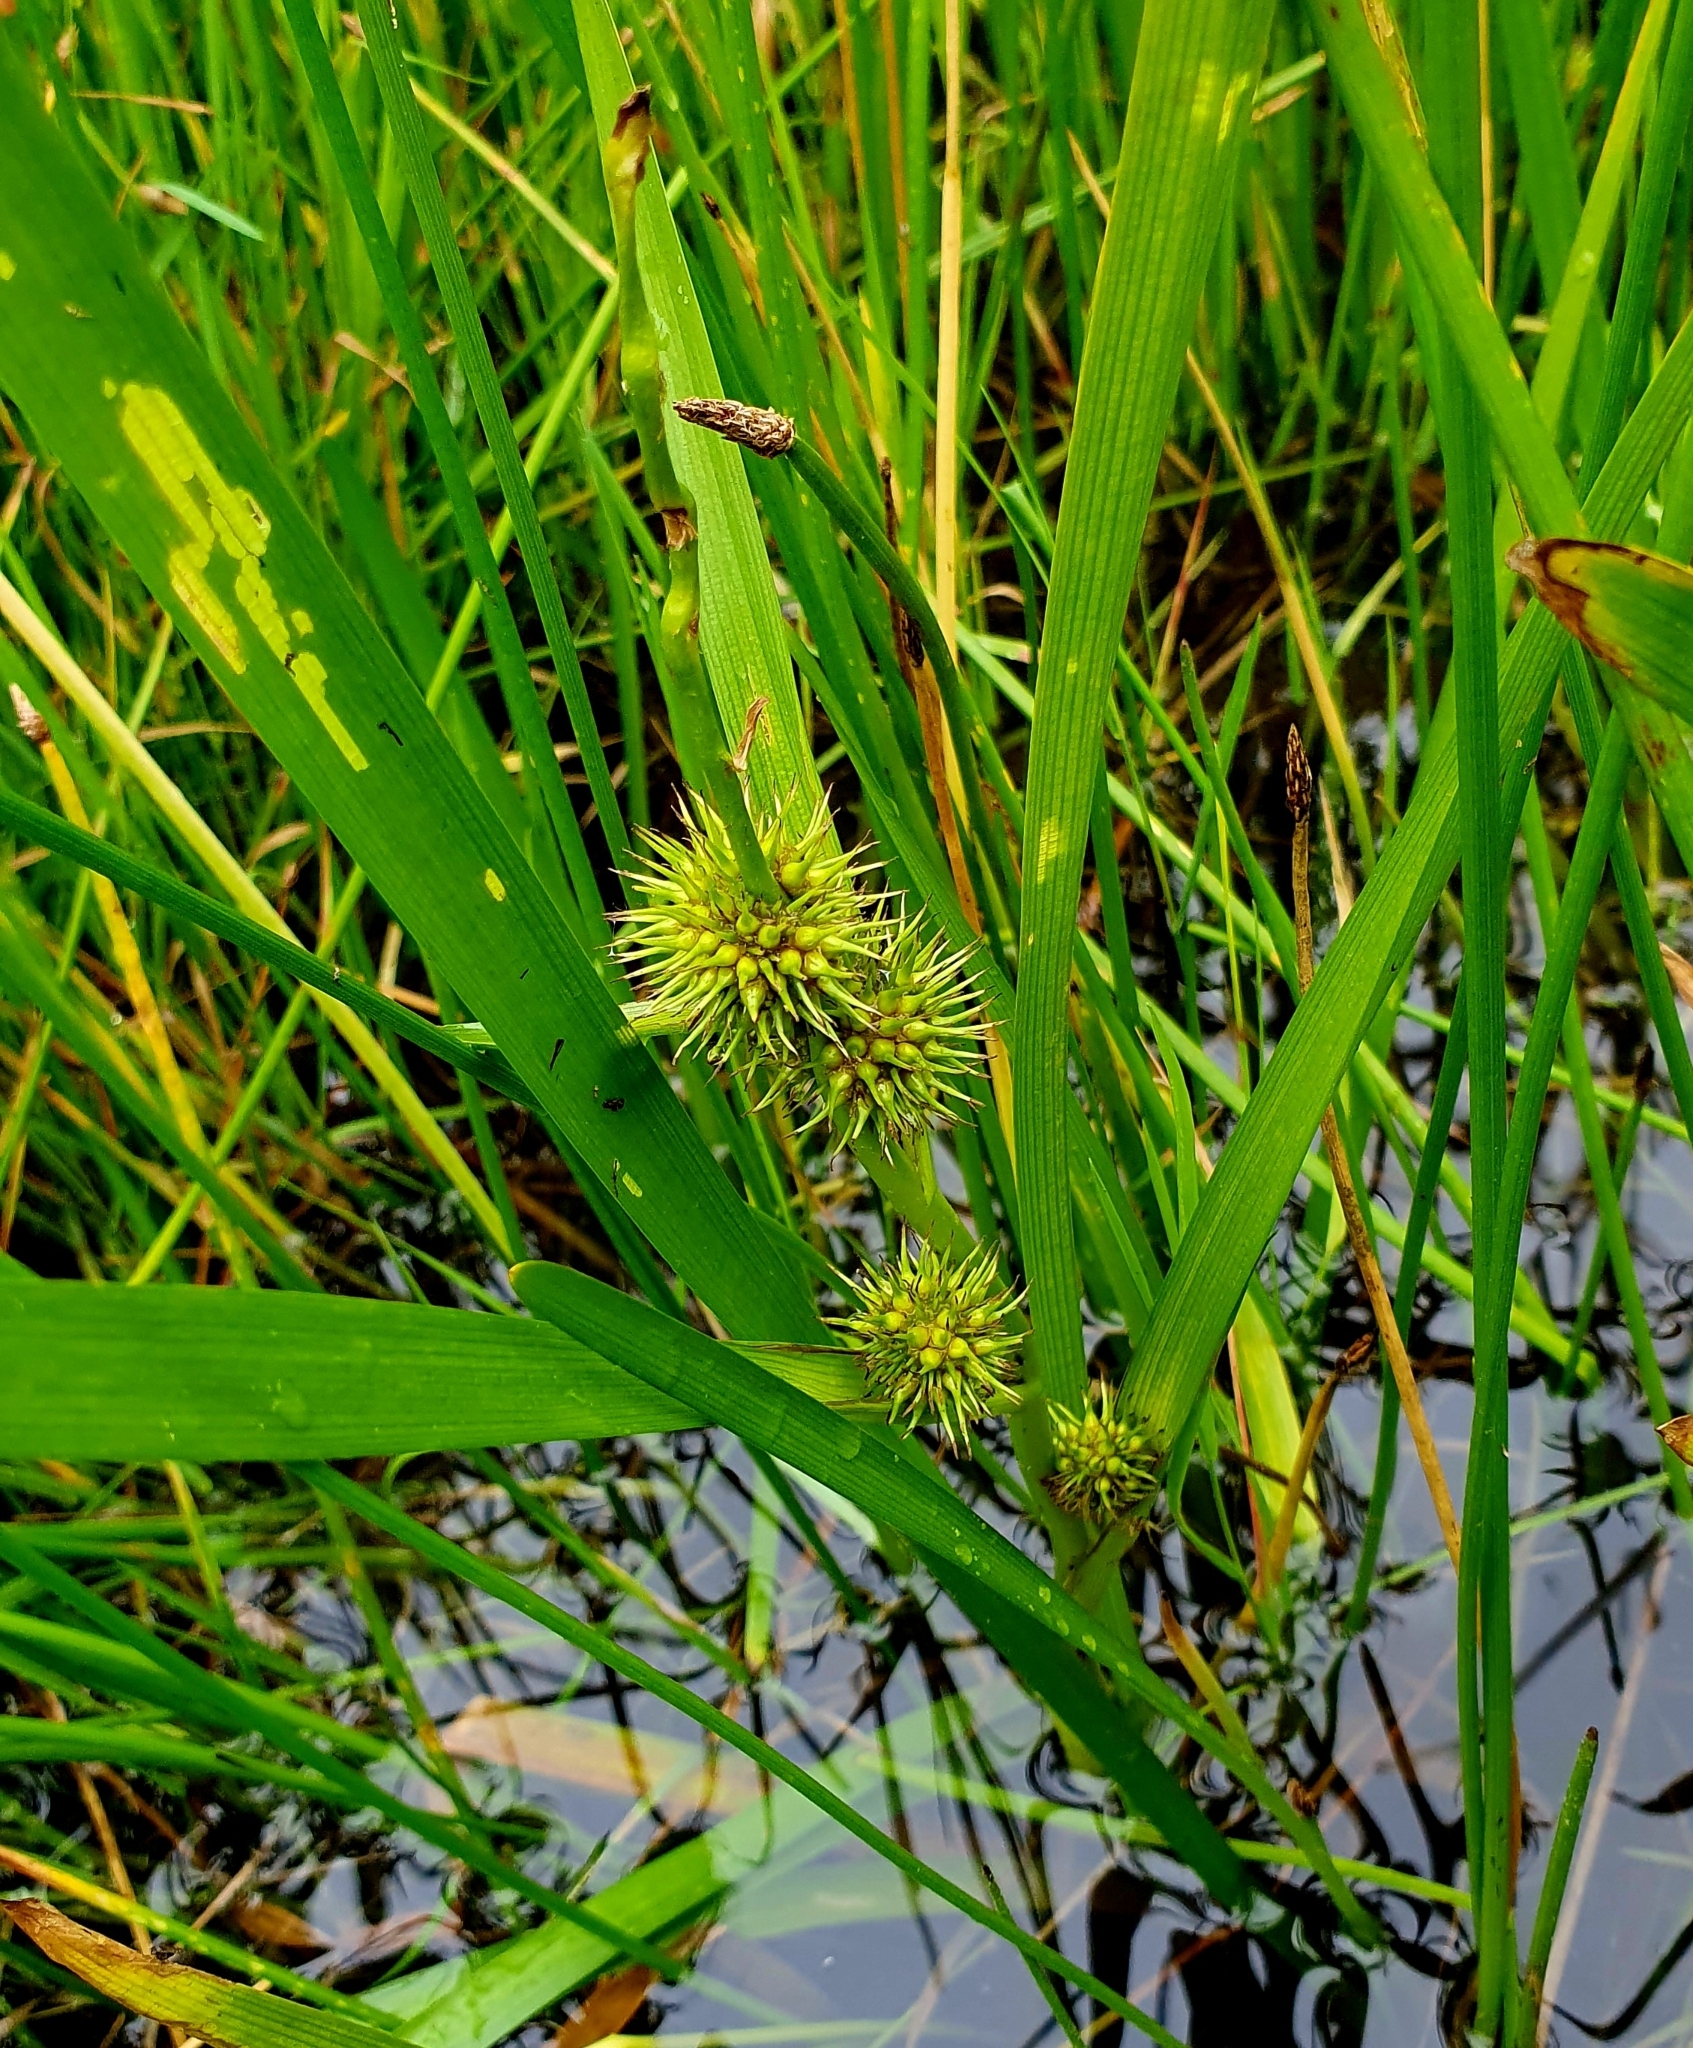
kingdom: Plantae
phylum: Tracheophyta
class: Liliopsida
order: Poales
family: Typhaceae
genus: Sparganium
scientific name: Sparganium emersum
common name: Unbranched bur-reed
